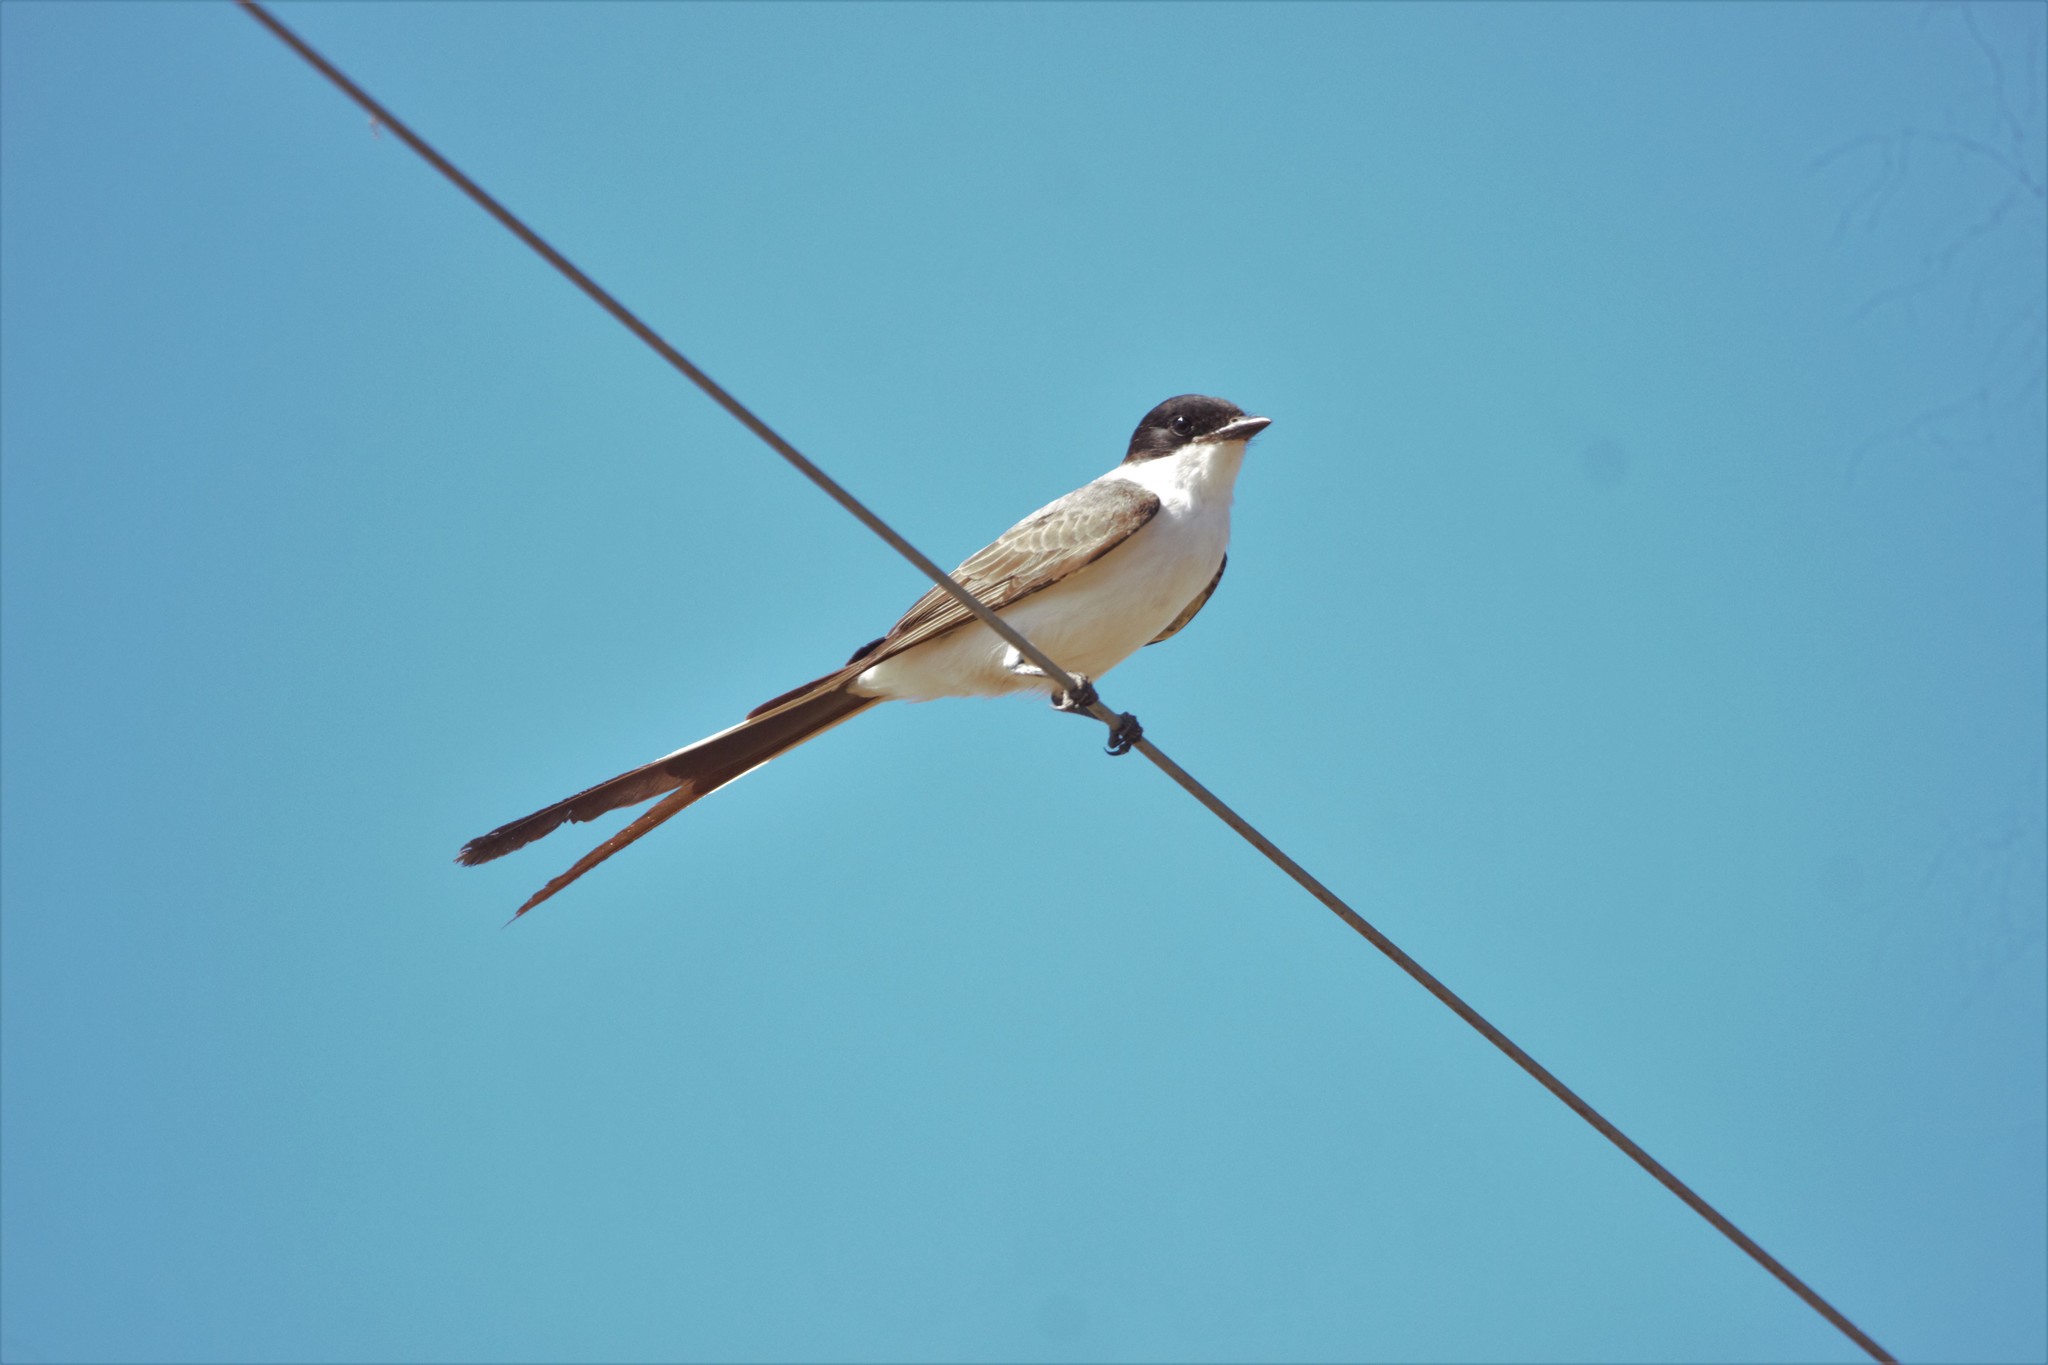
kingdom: Animalia
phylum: Chordata
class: Aves
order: Passeriformes
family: Tyrannidae
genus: Tyrannus
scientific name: Tyrannus savana
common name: Fork-tailed flycatcher
